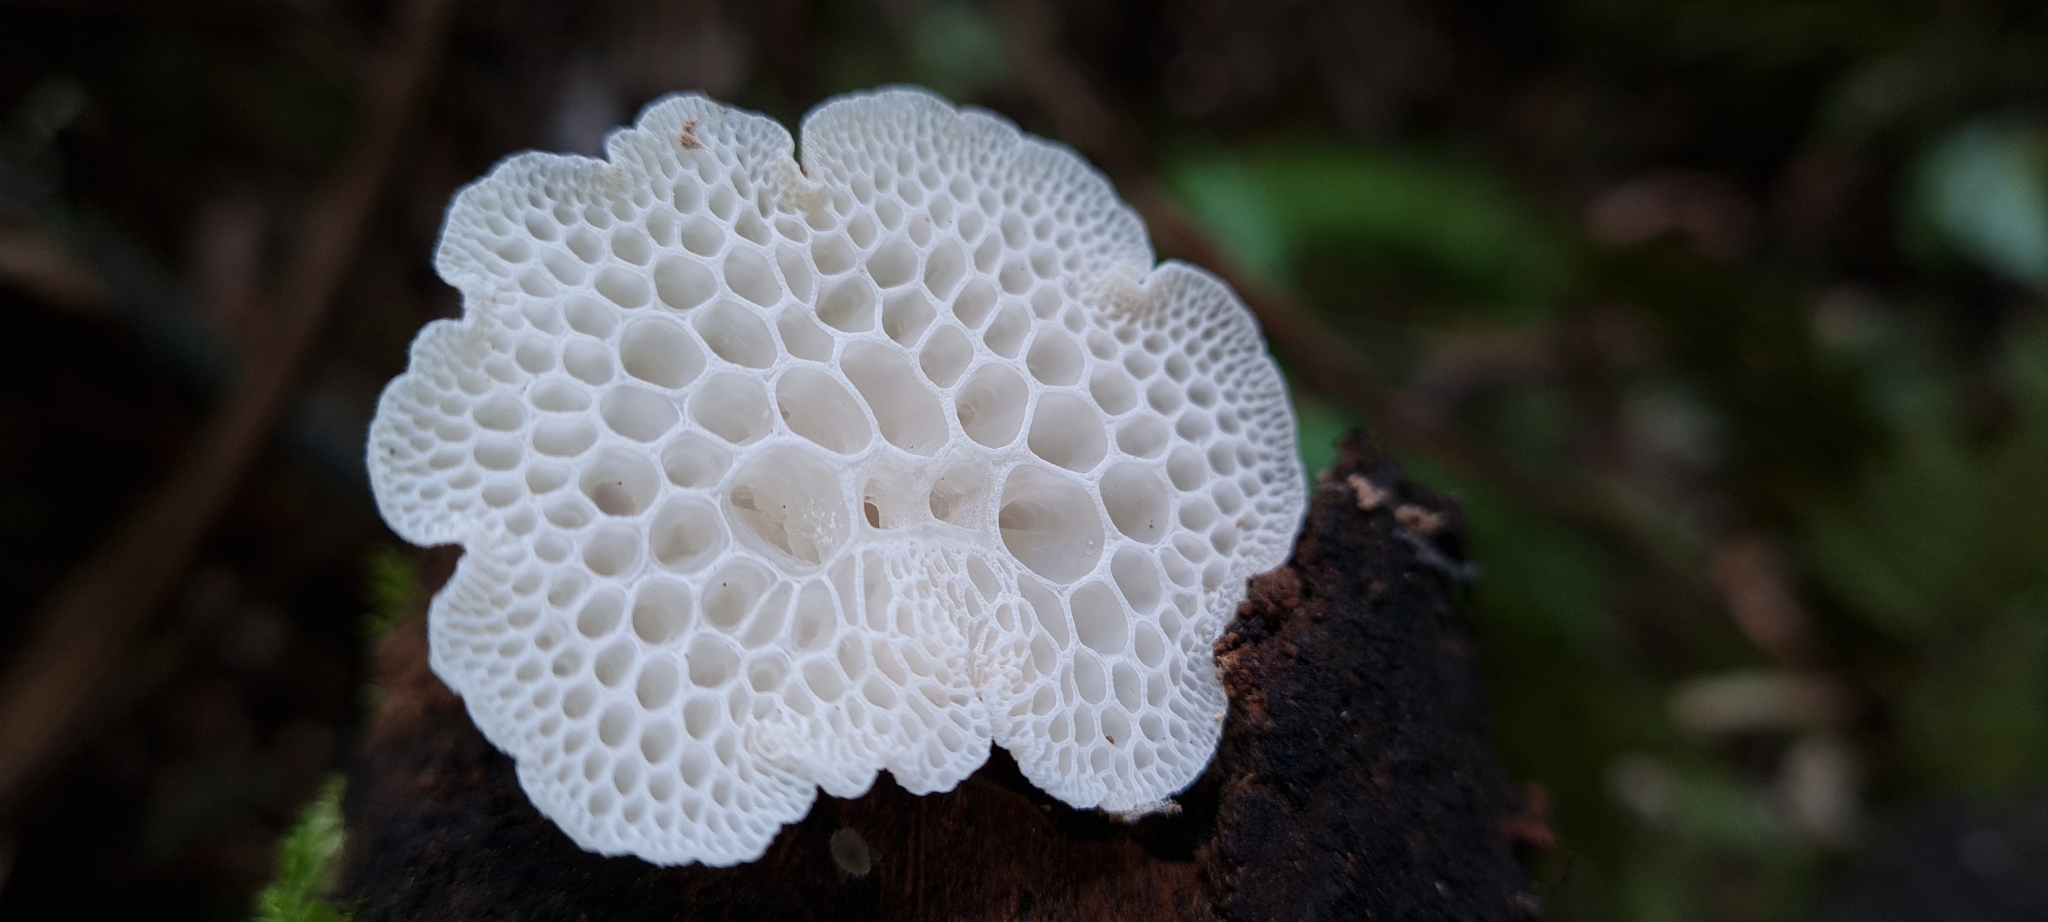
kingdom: Fungi
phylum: Basidiomycota
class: Agaricomycetes
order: Agaricales
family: Mycenaceae
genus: Favolaschia
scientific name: Favolaschia pustulosa
